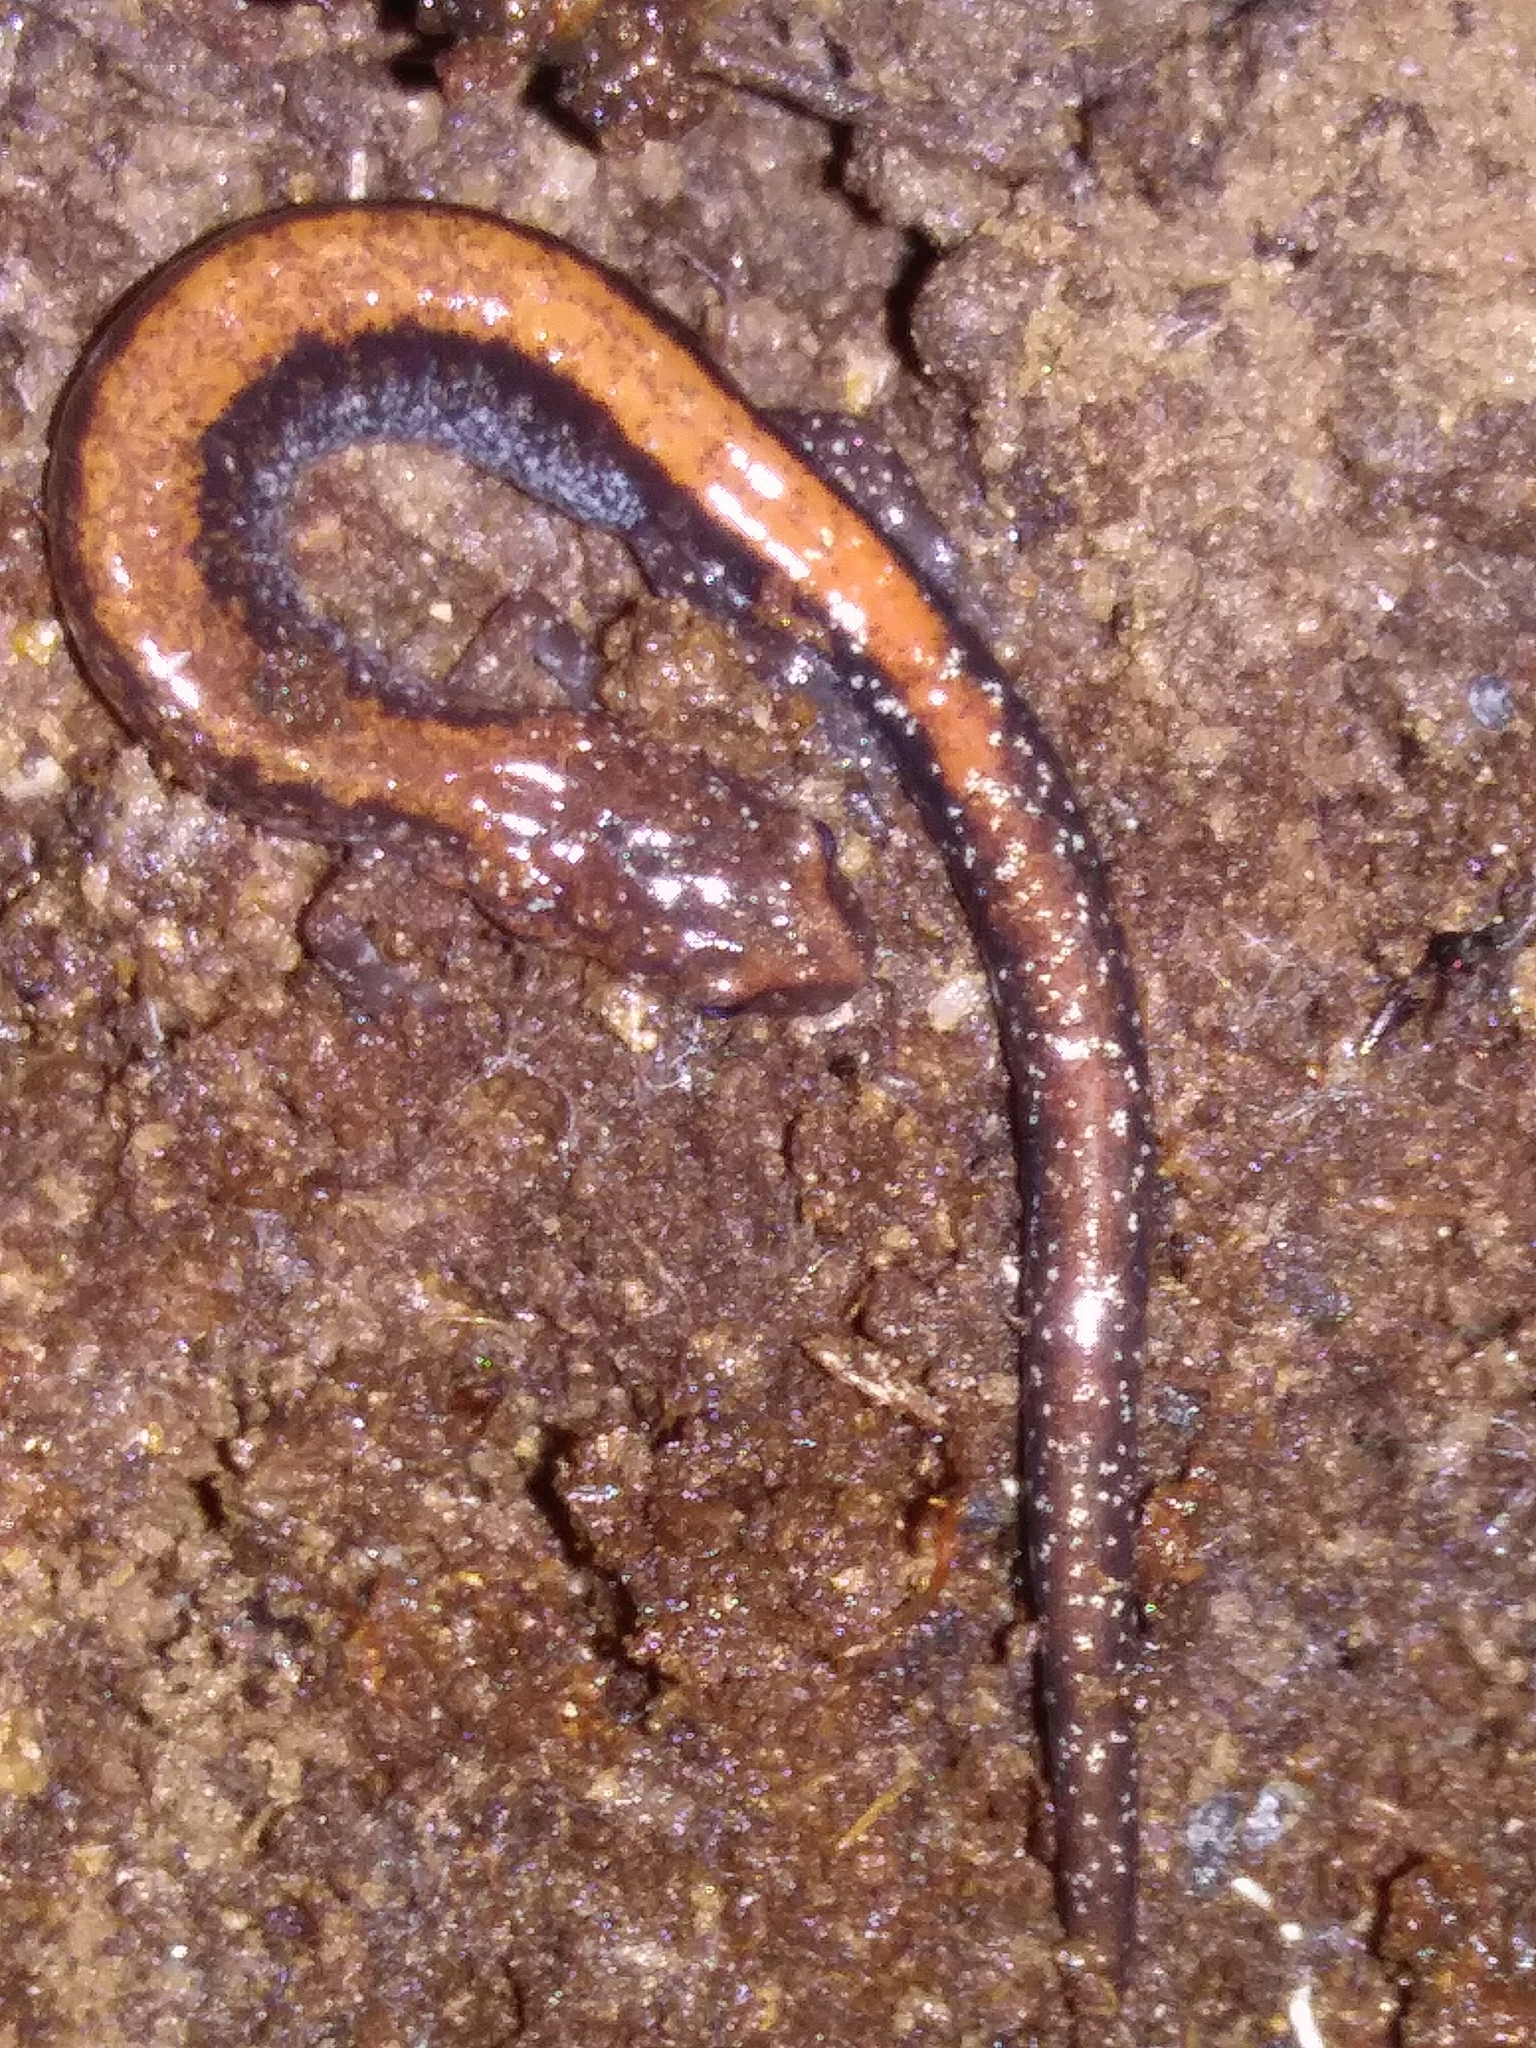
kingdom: Animalia
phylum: Chordata
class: Amphibia
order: Caudata
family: Plethodontidae
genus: Plethodon
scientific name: Plethodon cinereus
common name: Redback salamander
